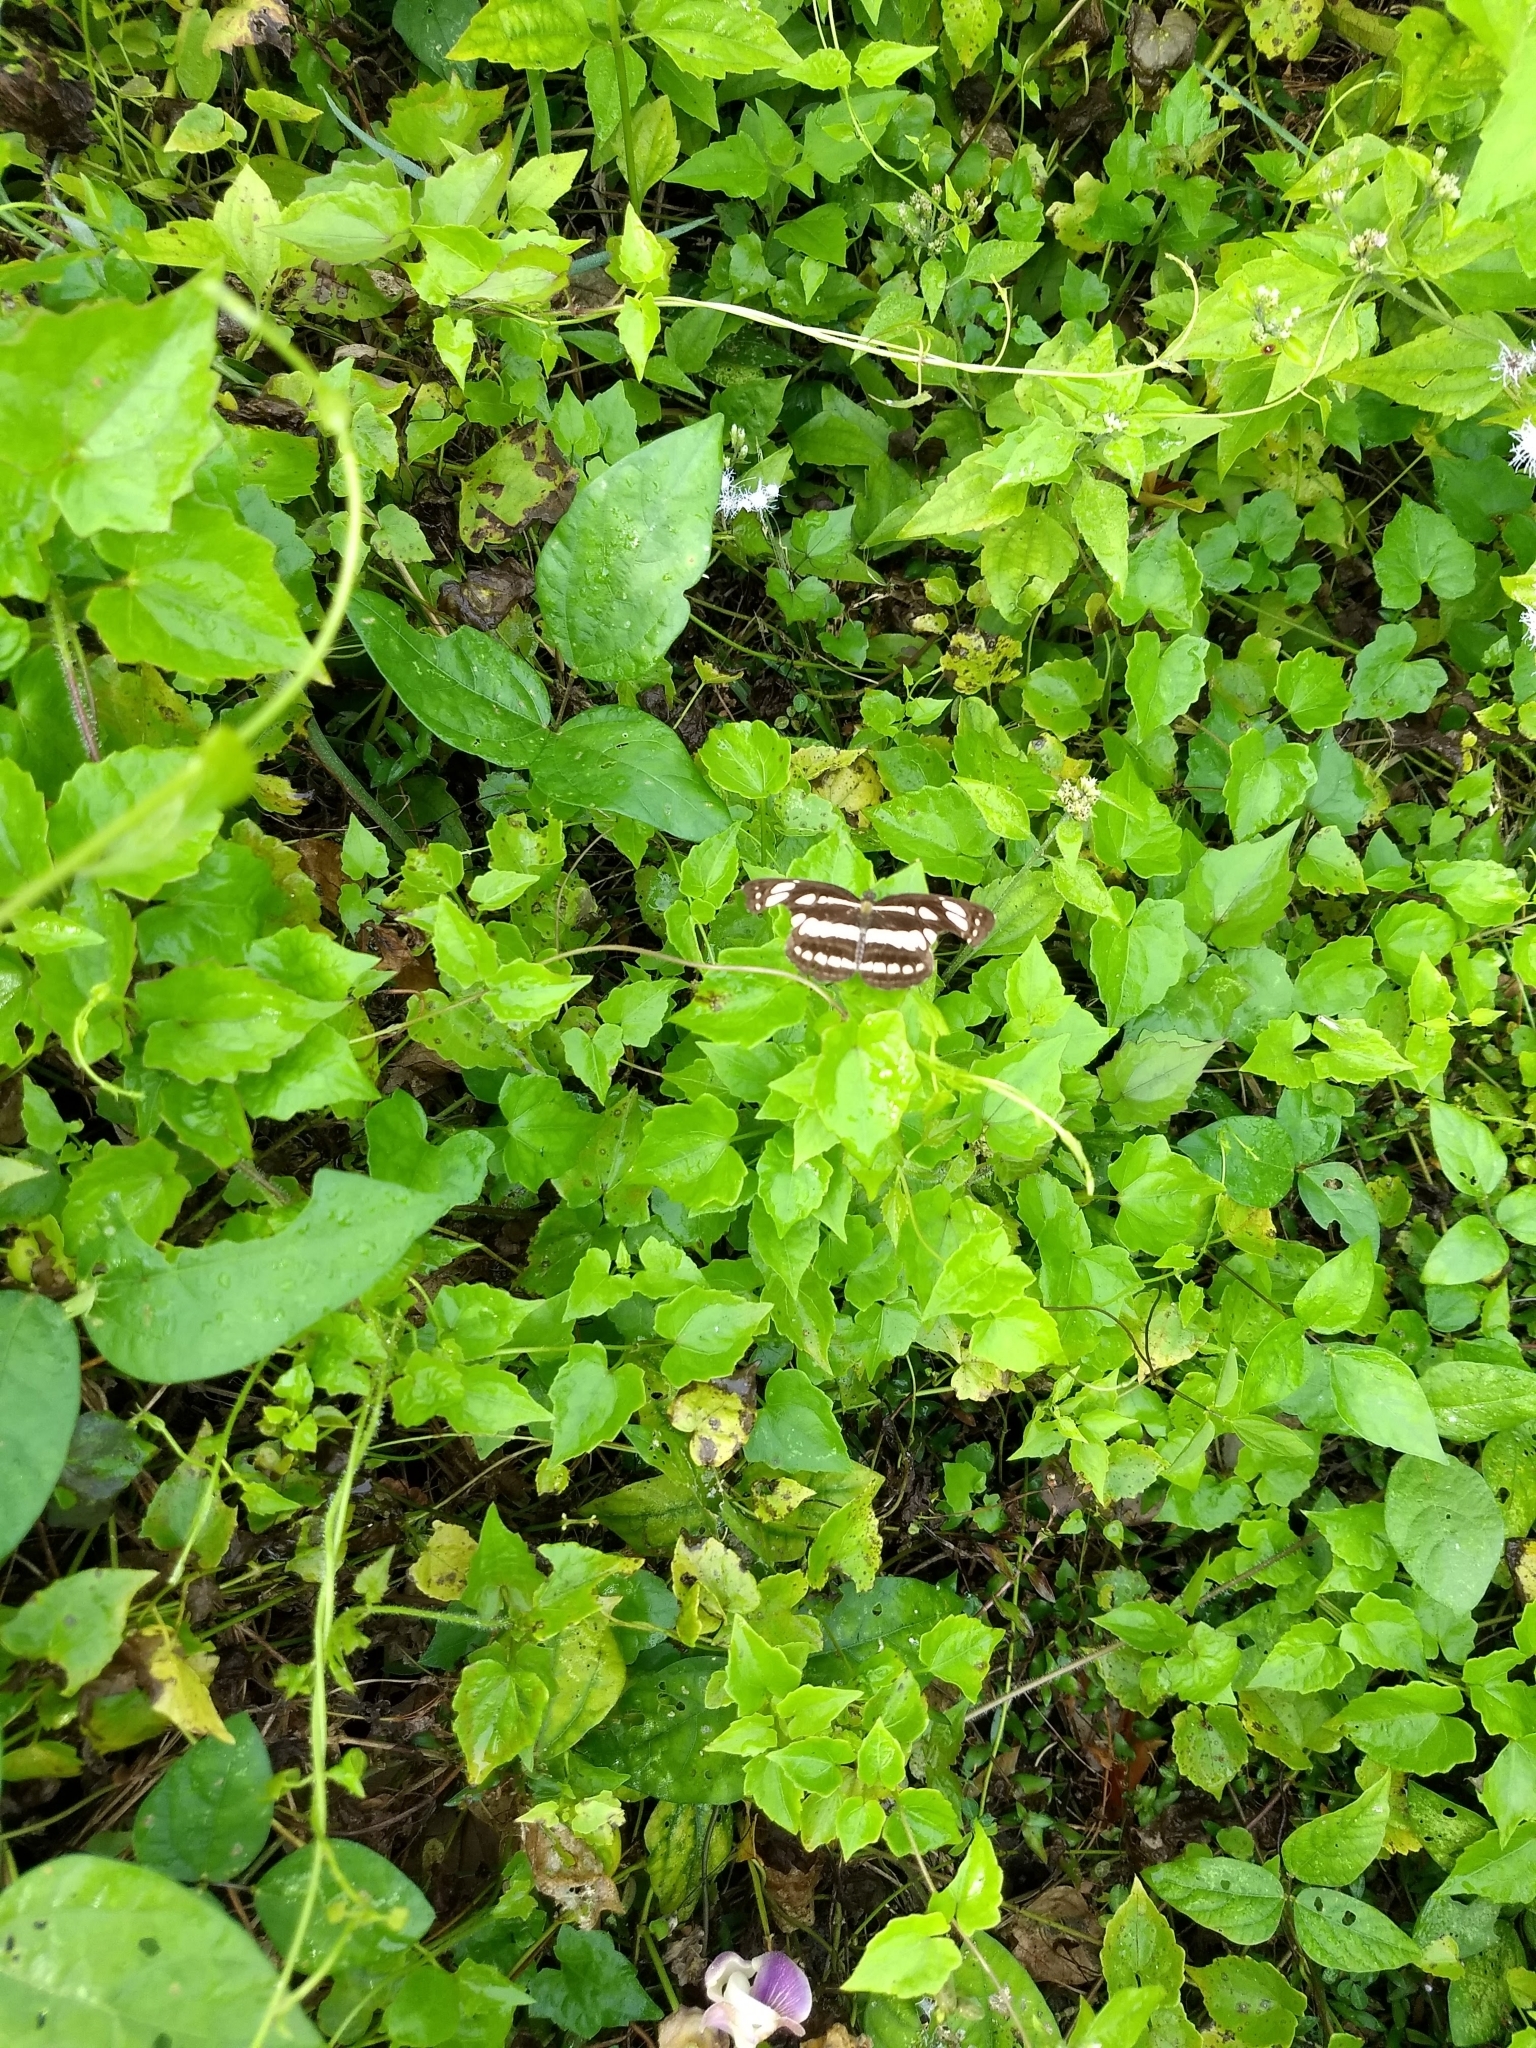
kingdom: Animalia
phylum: Arthropoda
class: Insecta
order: Lepidoptera
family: Nymphalidae
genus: Neptis
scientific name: Neptis hylas
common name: Common sailer
